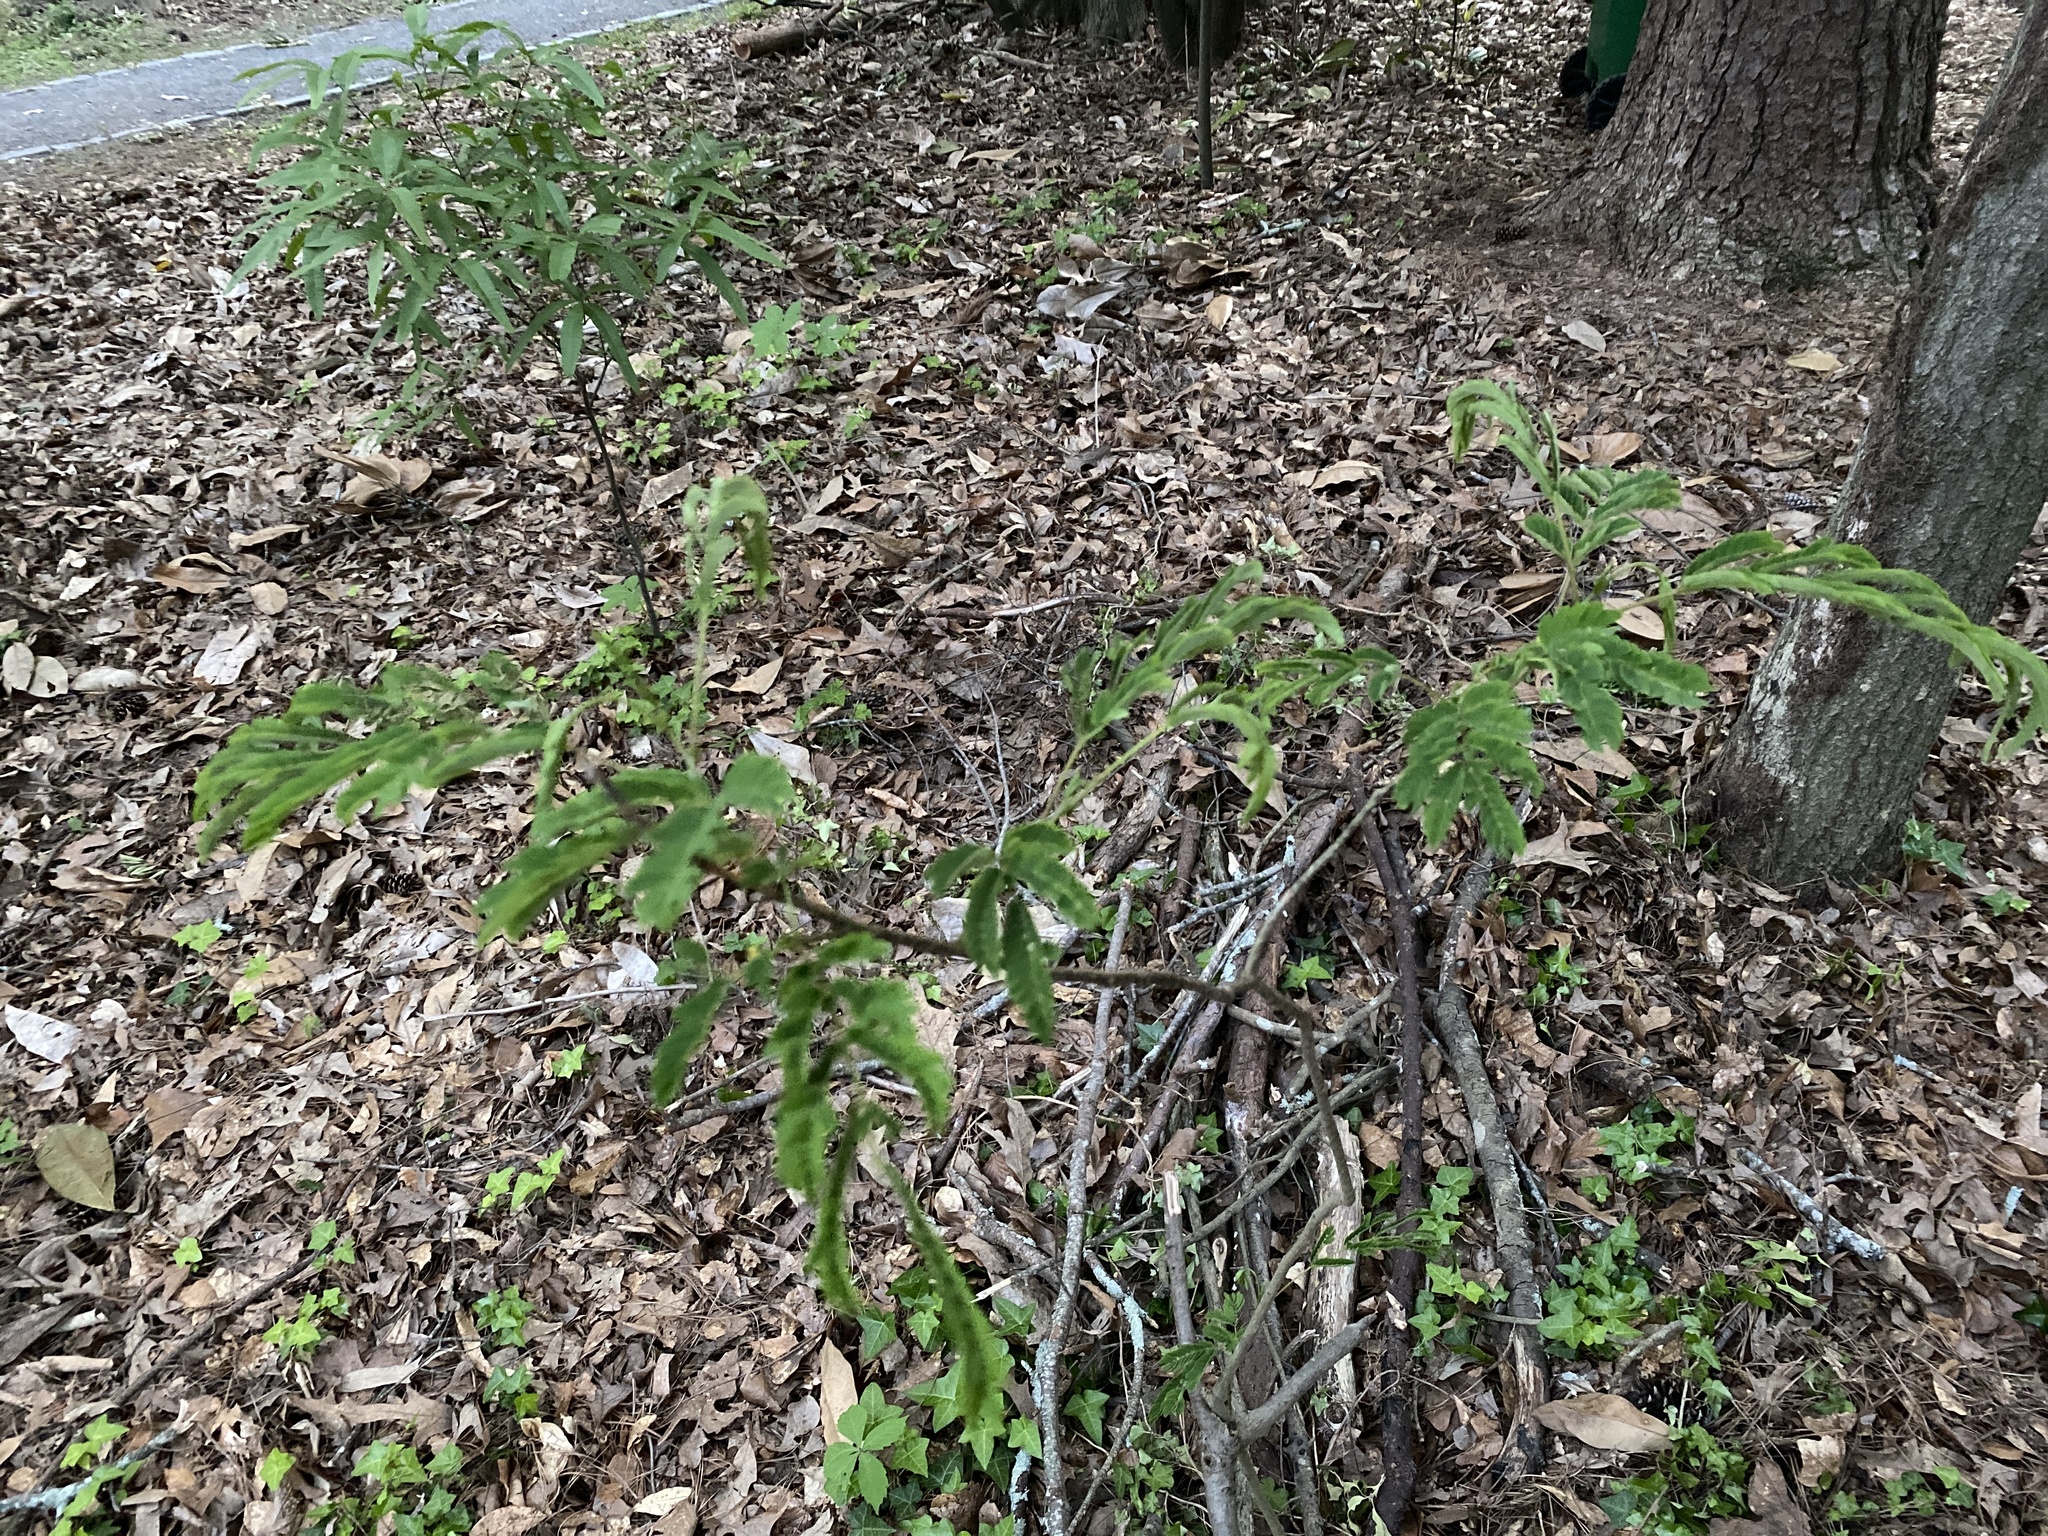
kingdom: Plantae
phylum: Tracheophyta
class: Magnoliopsida
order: Fabales
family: Fabaceae
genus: Albizia
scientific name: Albizia julibrissin
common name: Silktree
